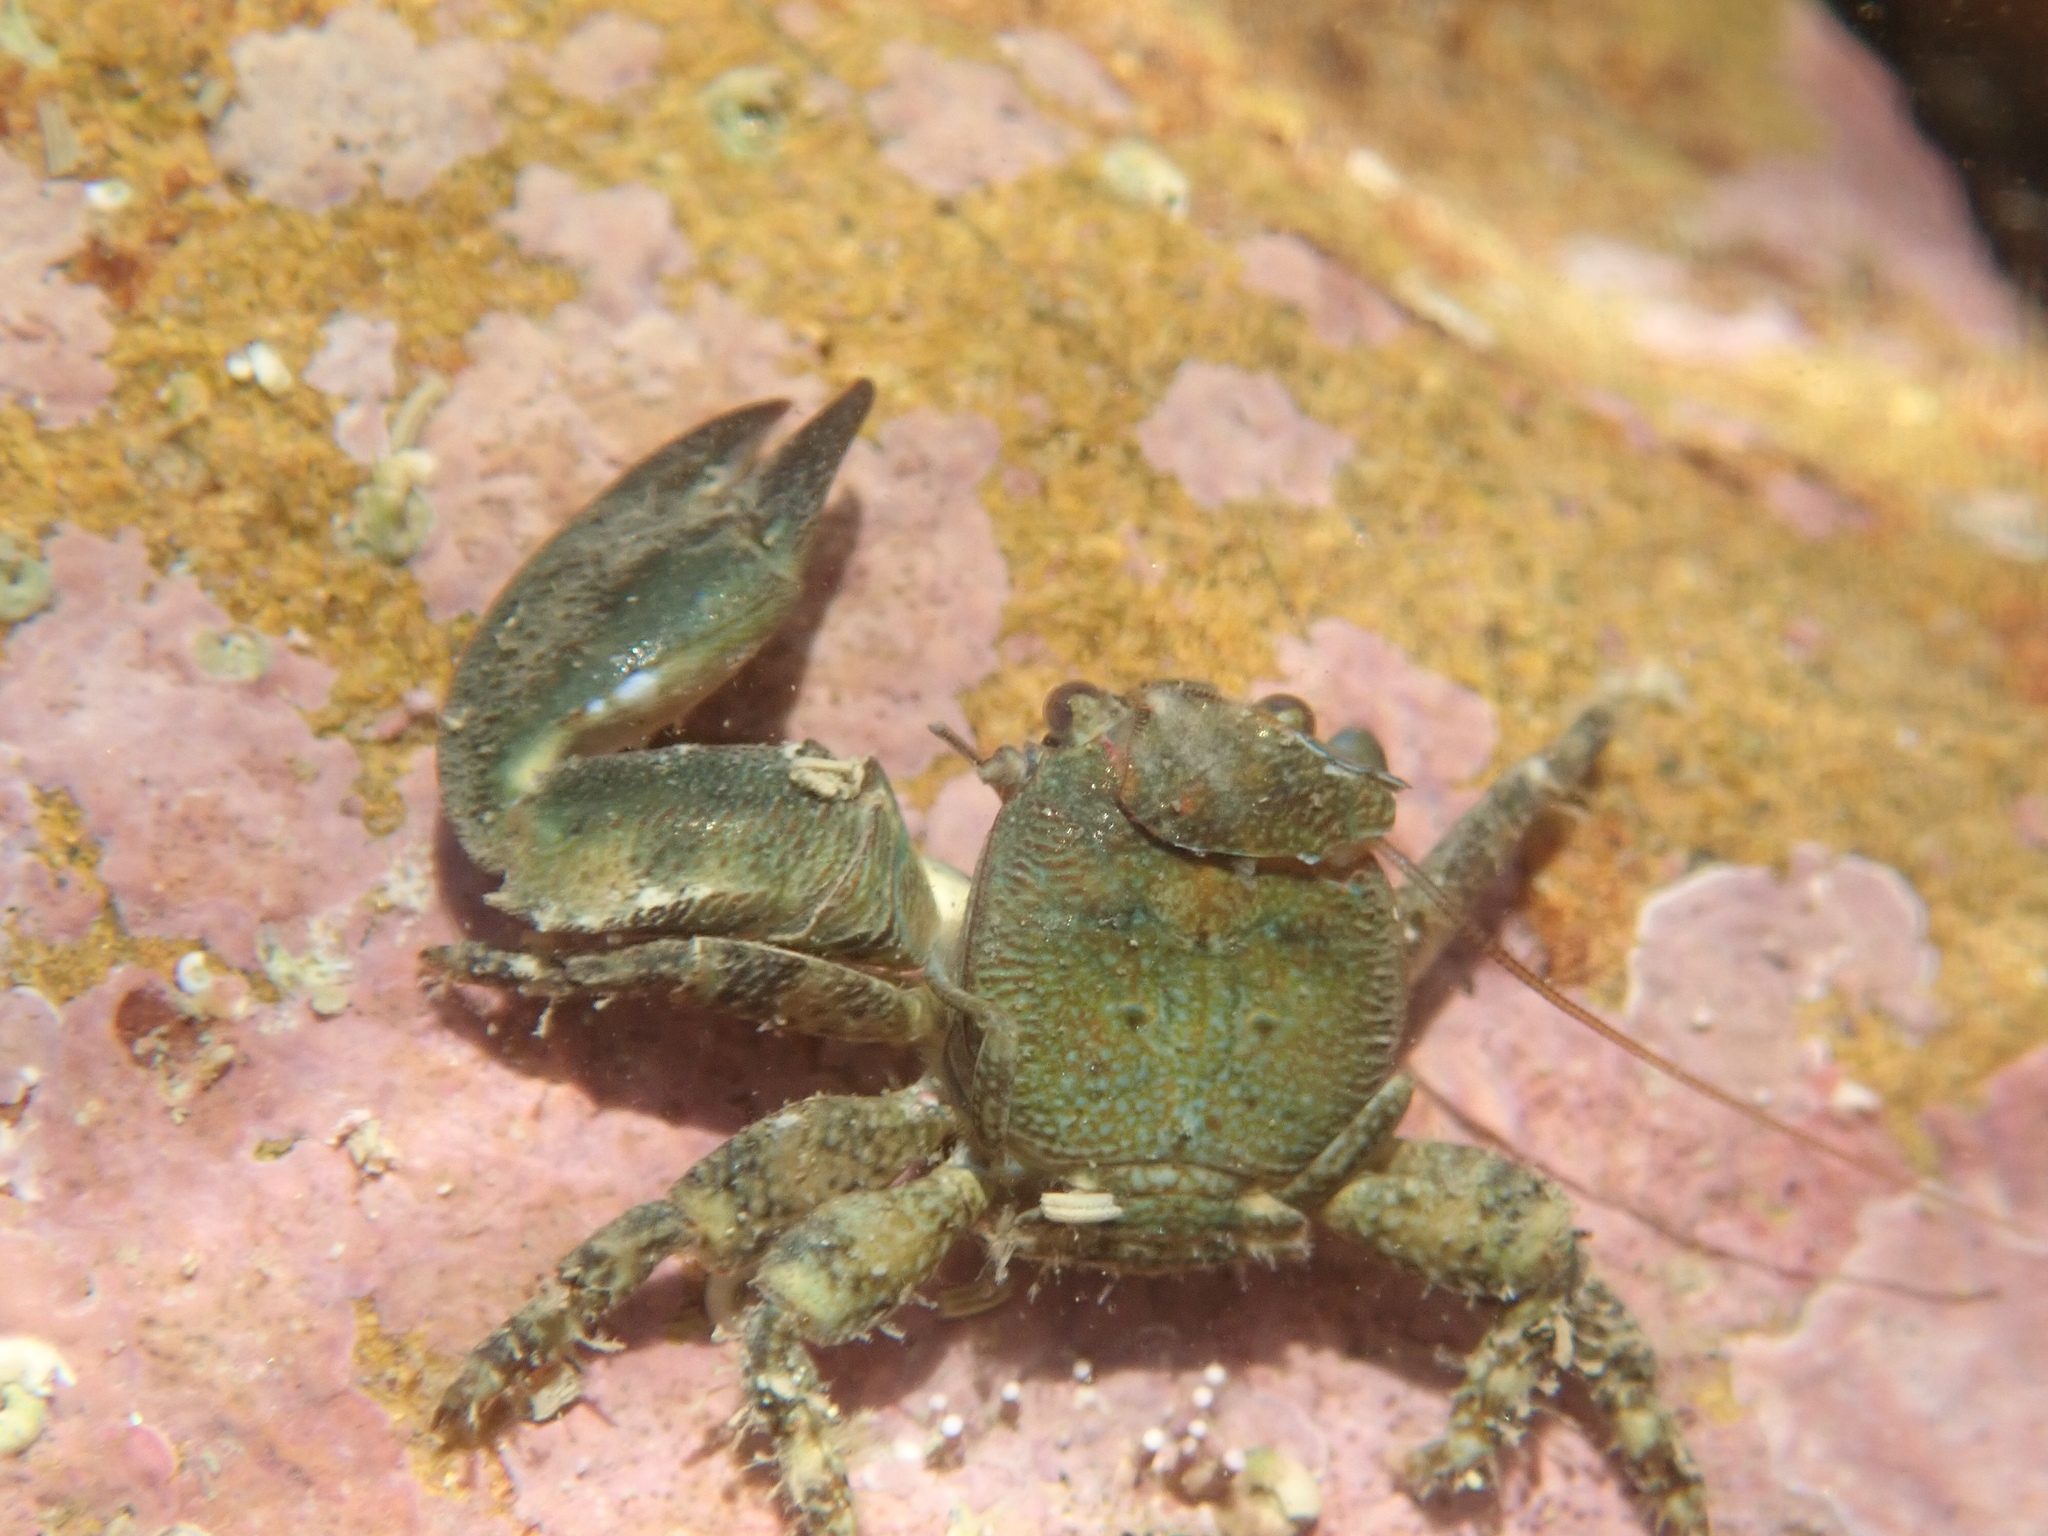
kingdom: Animalia
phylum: Arthropoda
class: Malacostraca
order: Decapoda
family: Porcellanidae
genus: Petrolisthes
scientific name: Petrolisthes elongatus
